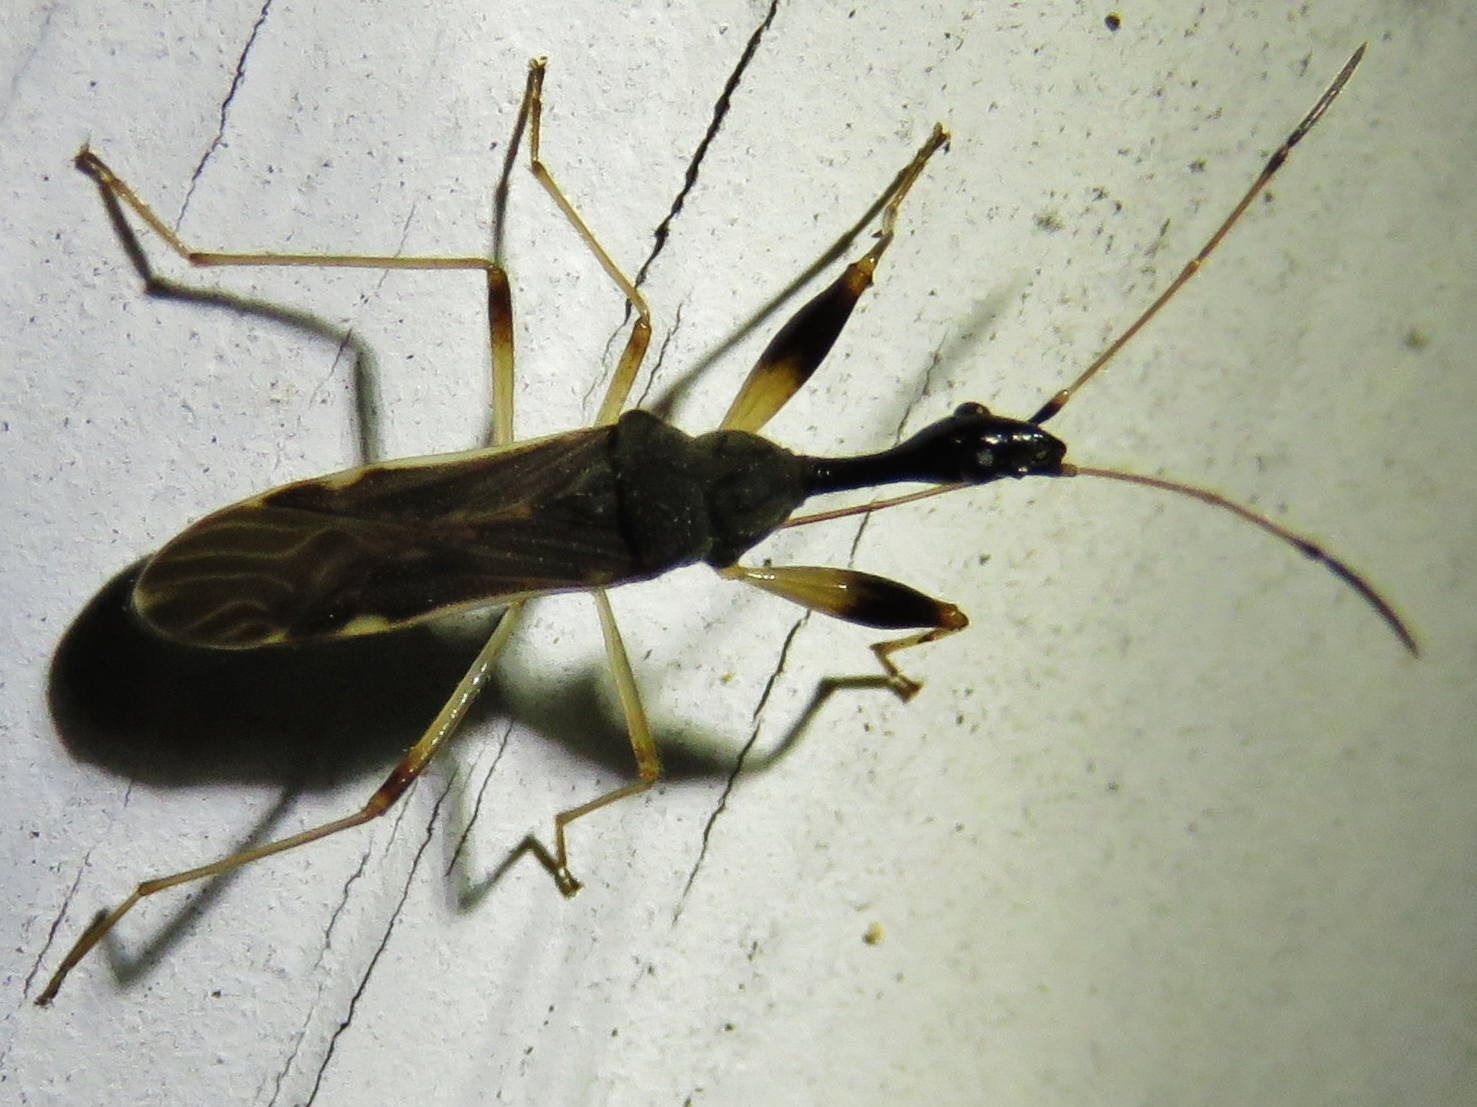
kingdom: Animalia
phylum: Arthropoda
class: Insecta
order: Hemiptera
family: Rhyparochromidae
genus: Myodocha
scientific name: Myodocha serripes
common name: Long-necked seed bug
